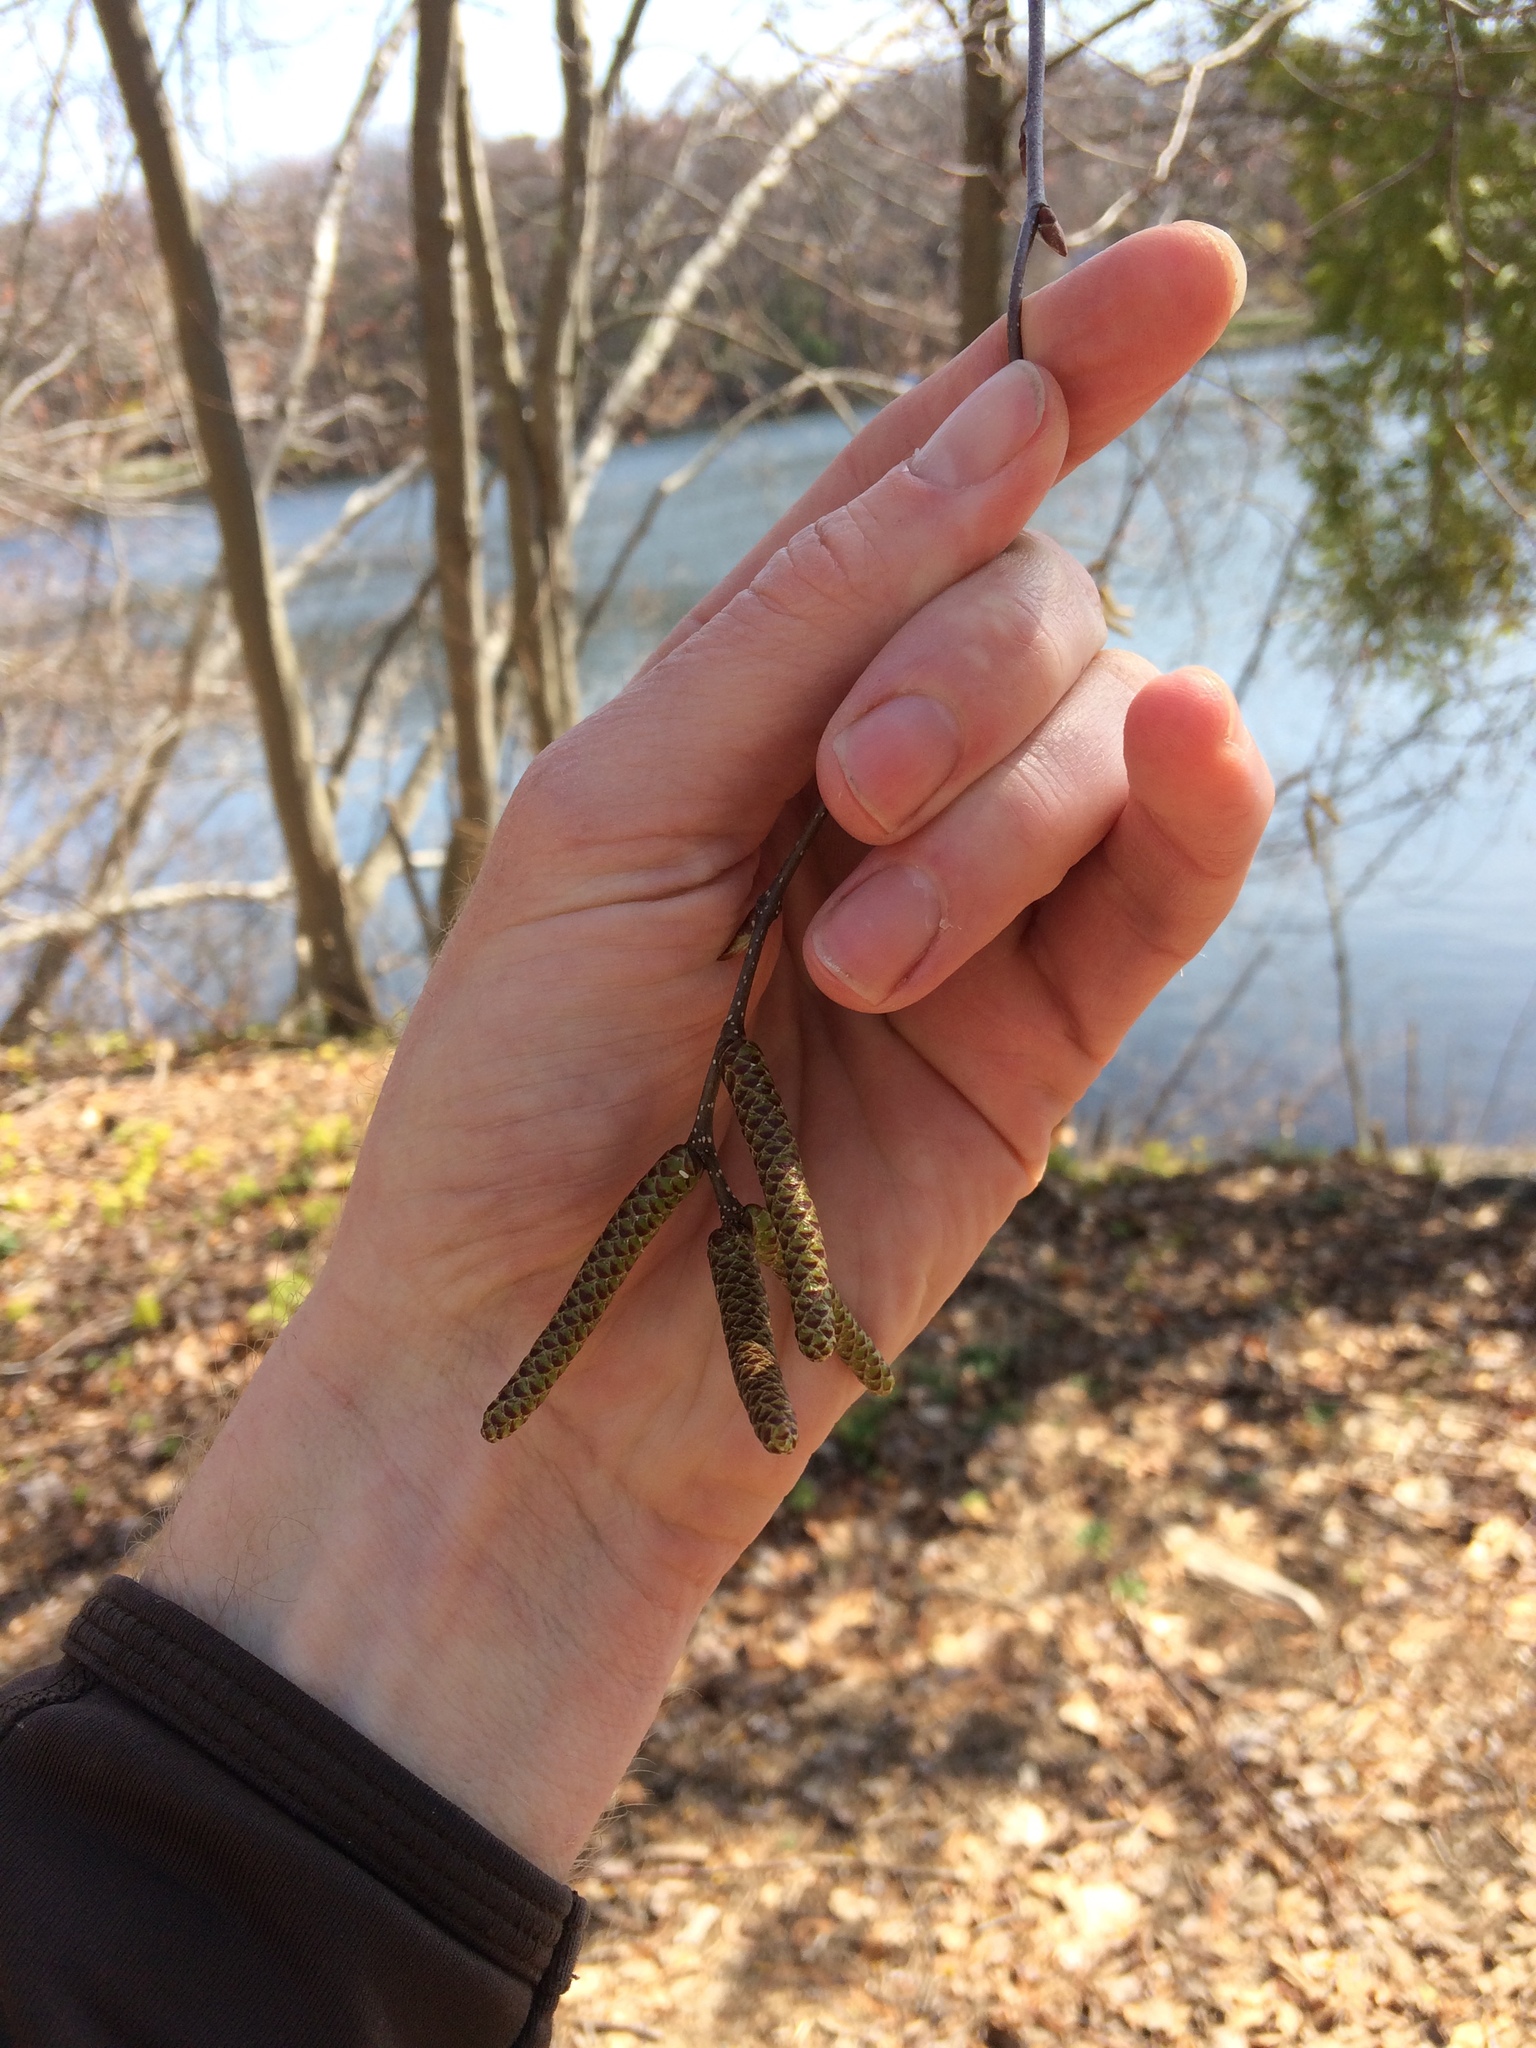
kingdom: Plantae
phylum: Tracheophyta
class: Magnoliopsida
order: Fagales
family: Betulaceae
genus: Betula
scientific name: Betula lenta
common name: Black birch
